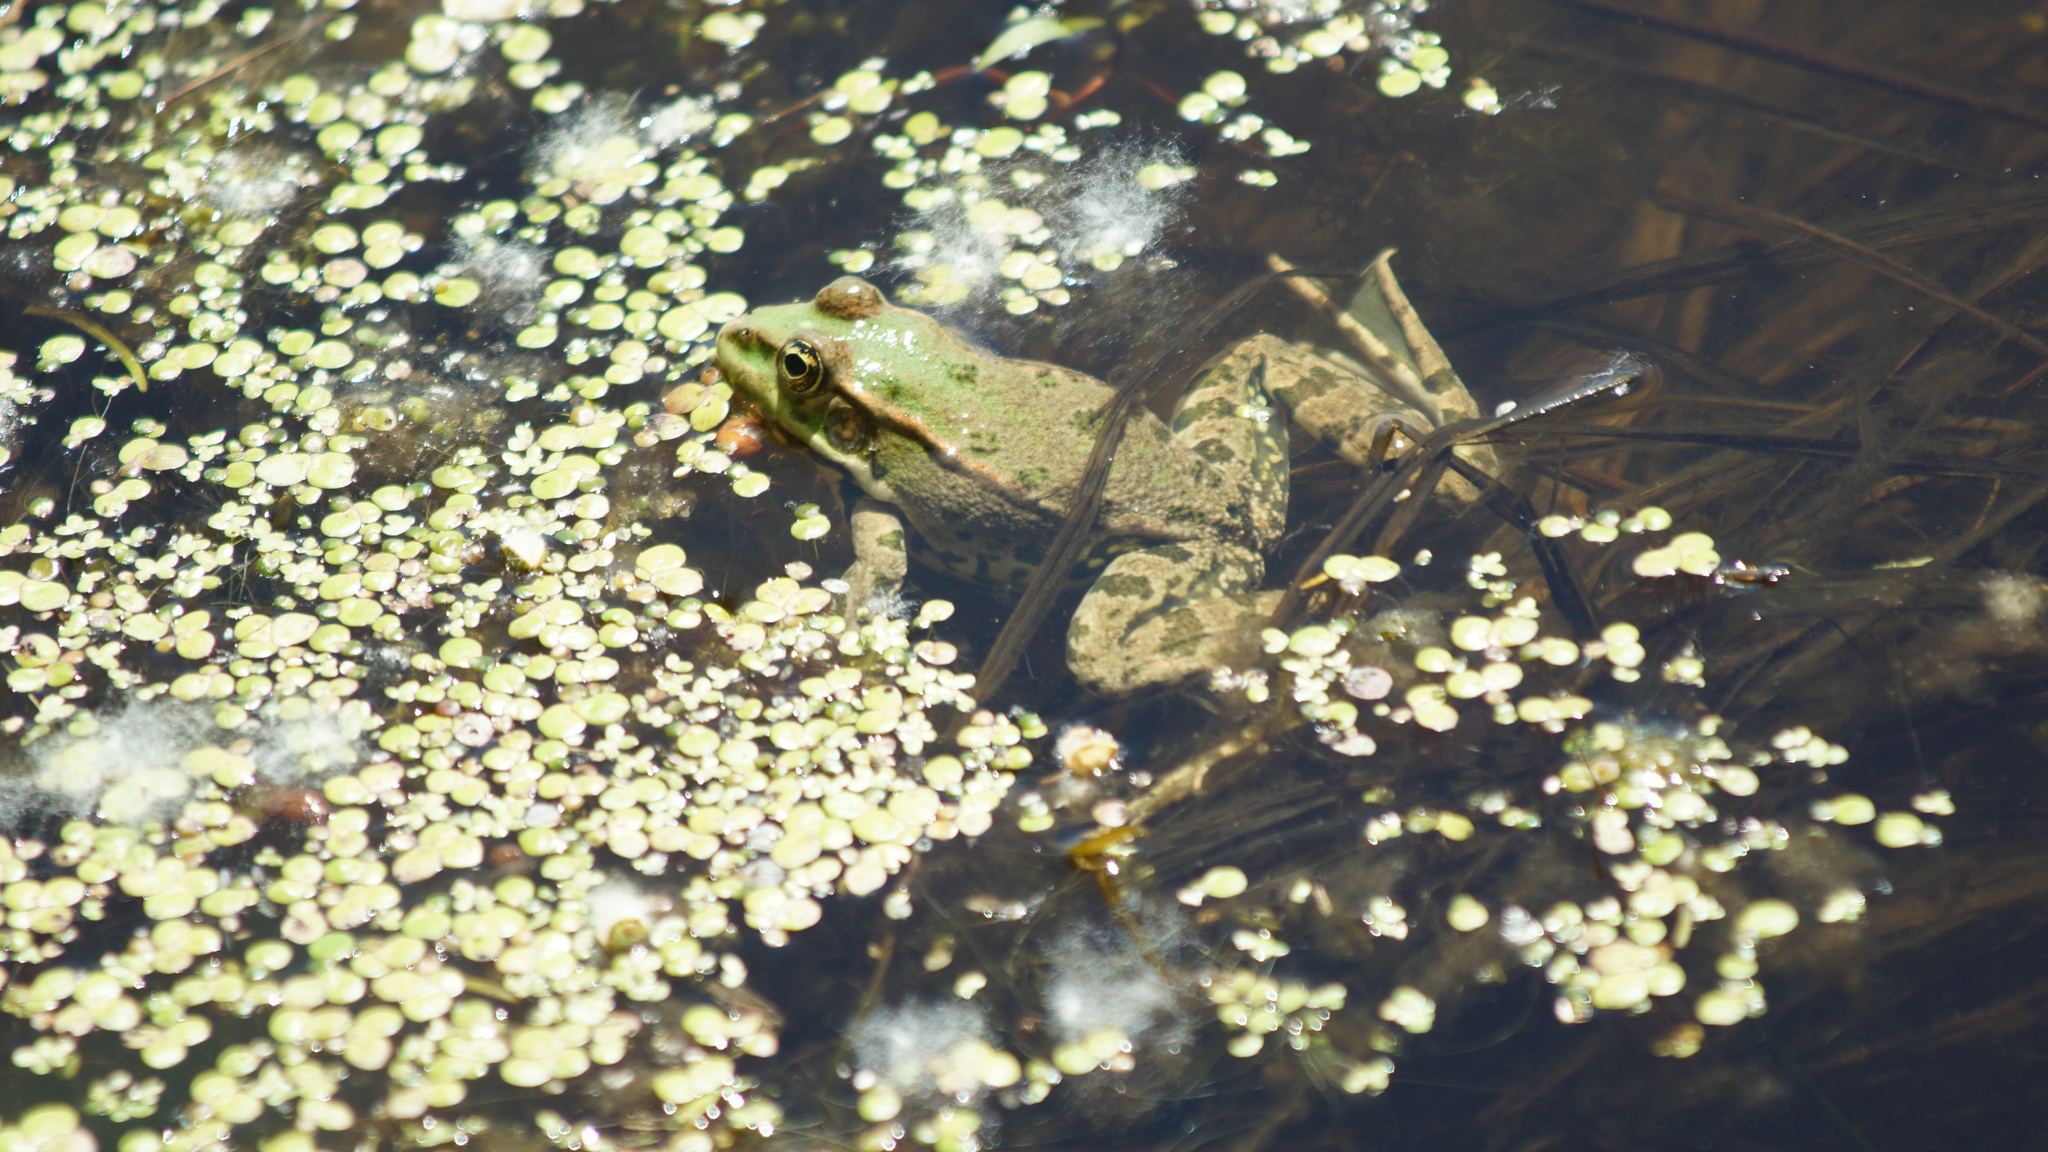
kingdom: Animalia
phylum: Chordata
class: Amphibia
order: Anura
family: Ranidae
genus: Pelophylax
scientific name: Pelophylax ridibundus
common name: Marsh frog
